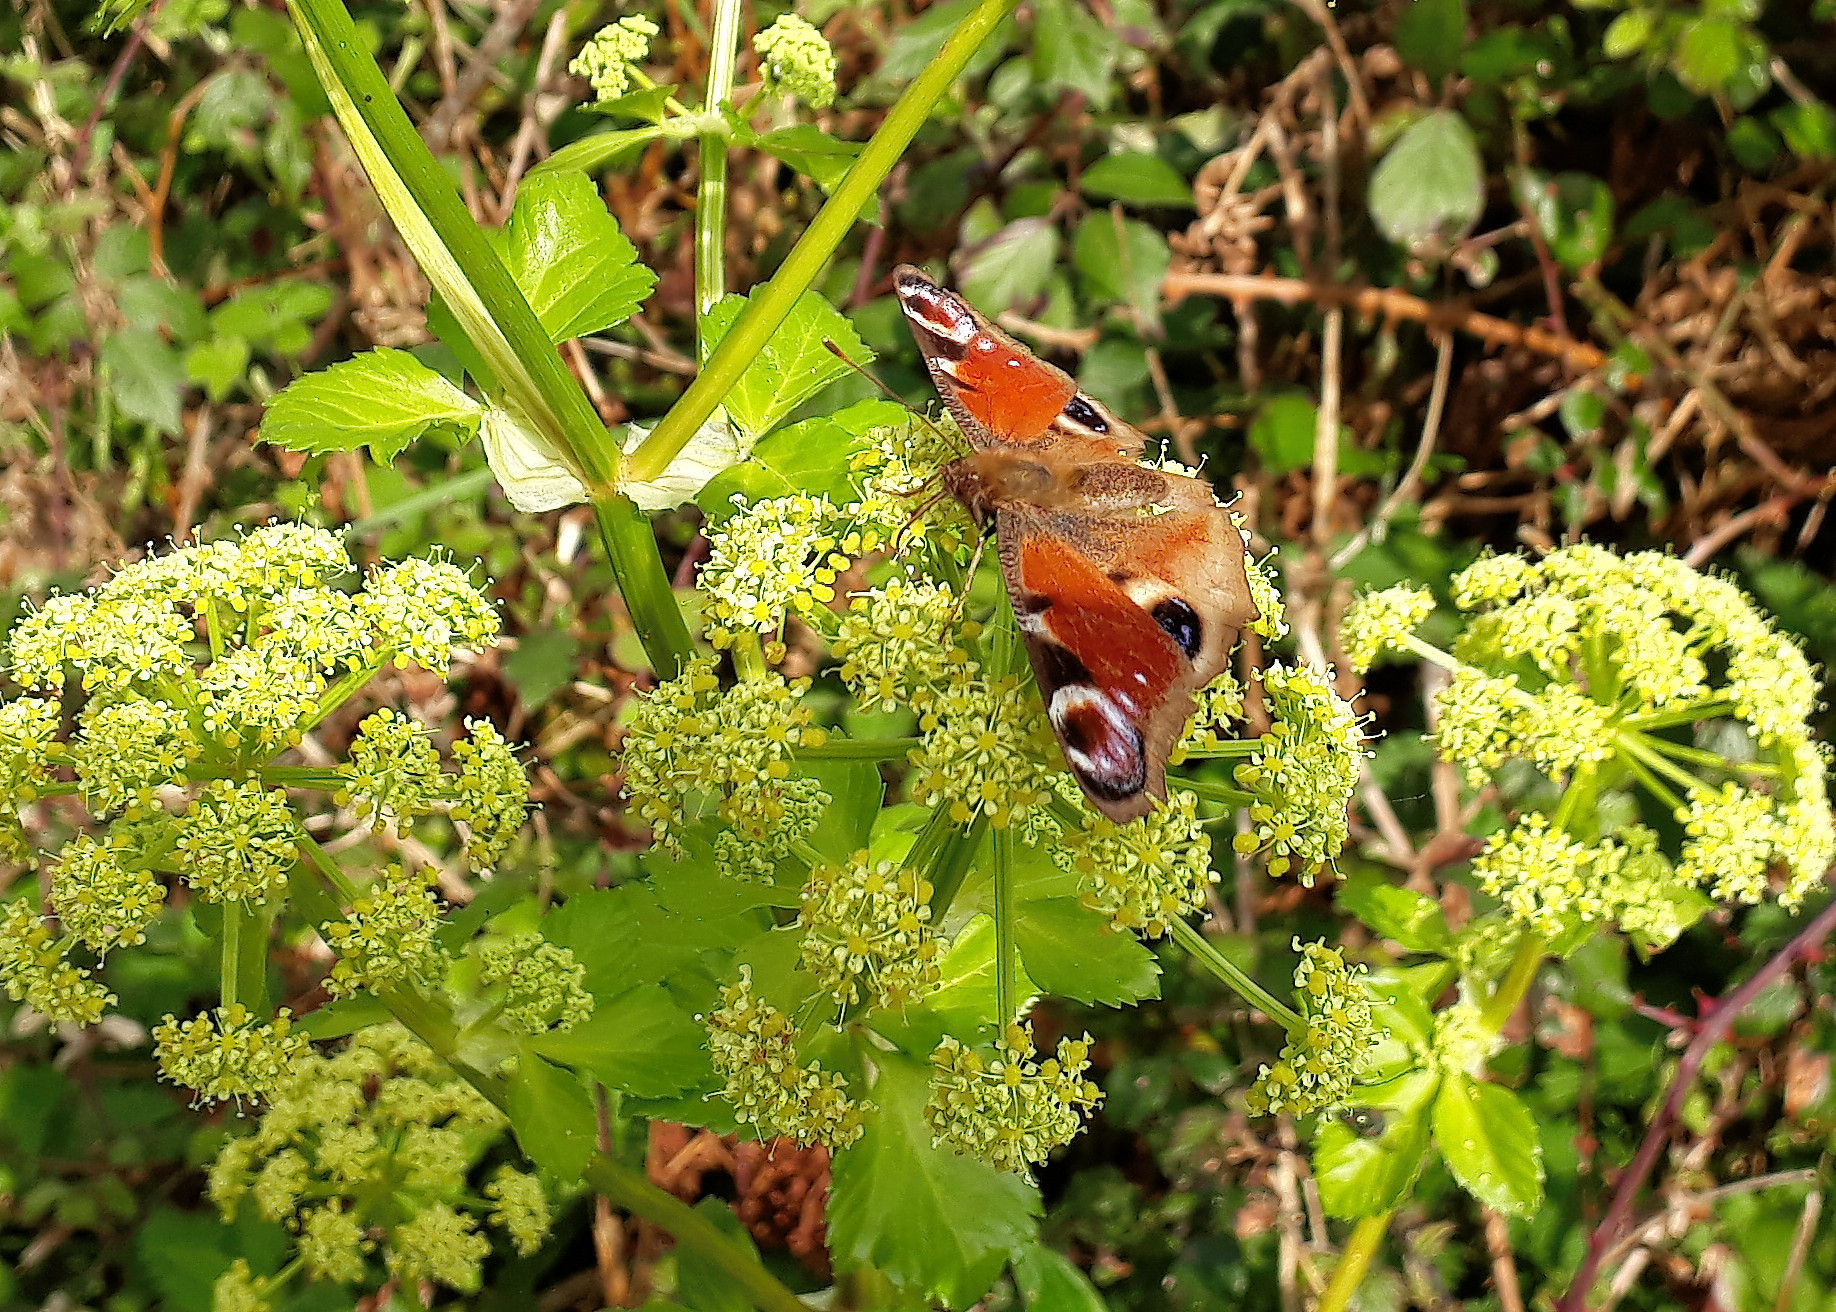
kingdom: Animalia
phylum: Arthropoda
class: Insecta
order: Lepidoptera
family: Nymphalidae
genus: Aglais
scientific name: Aglais io
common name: Peacock
